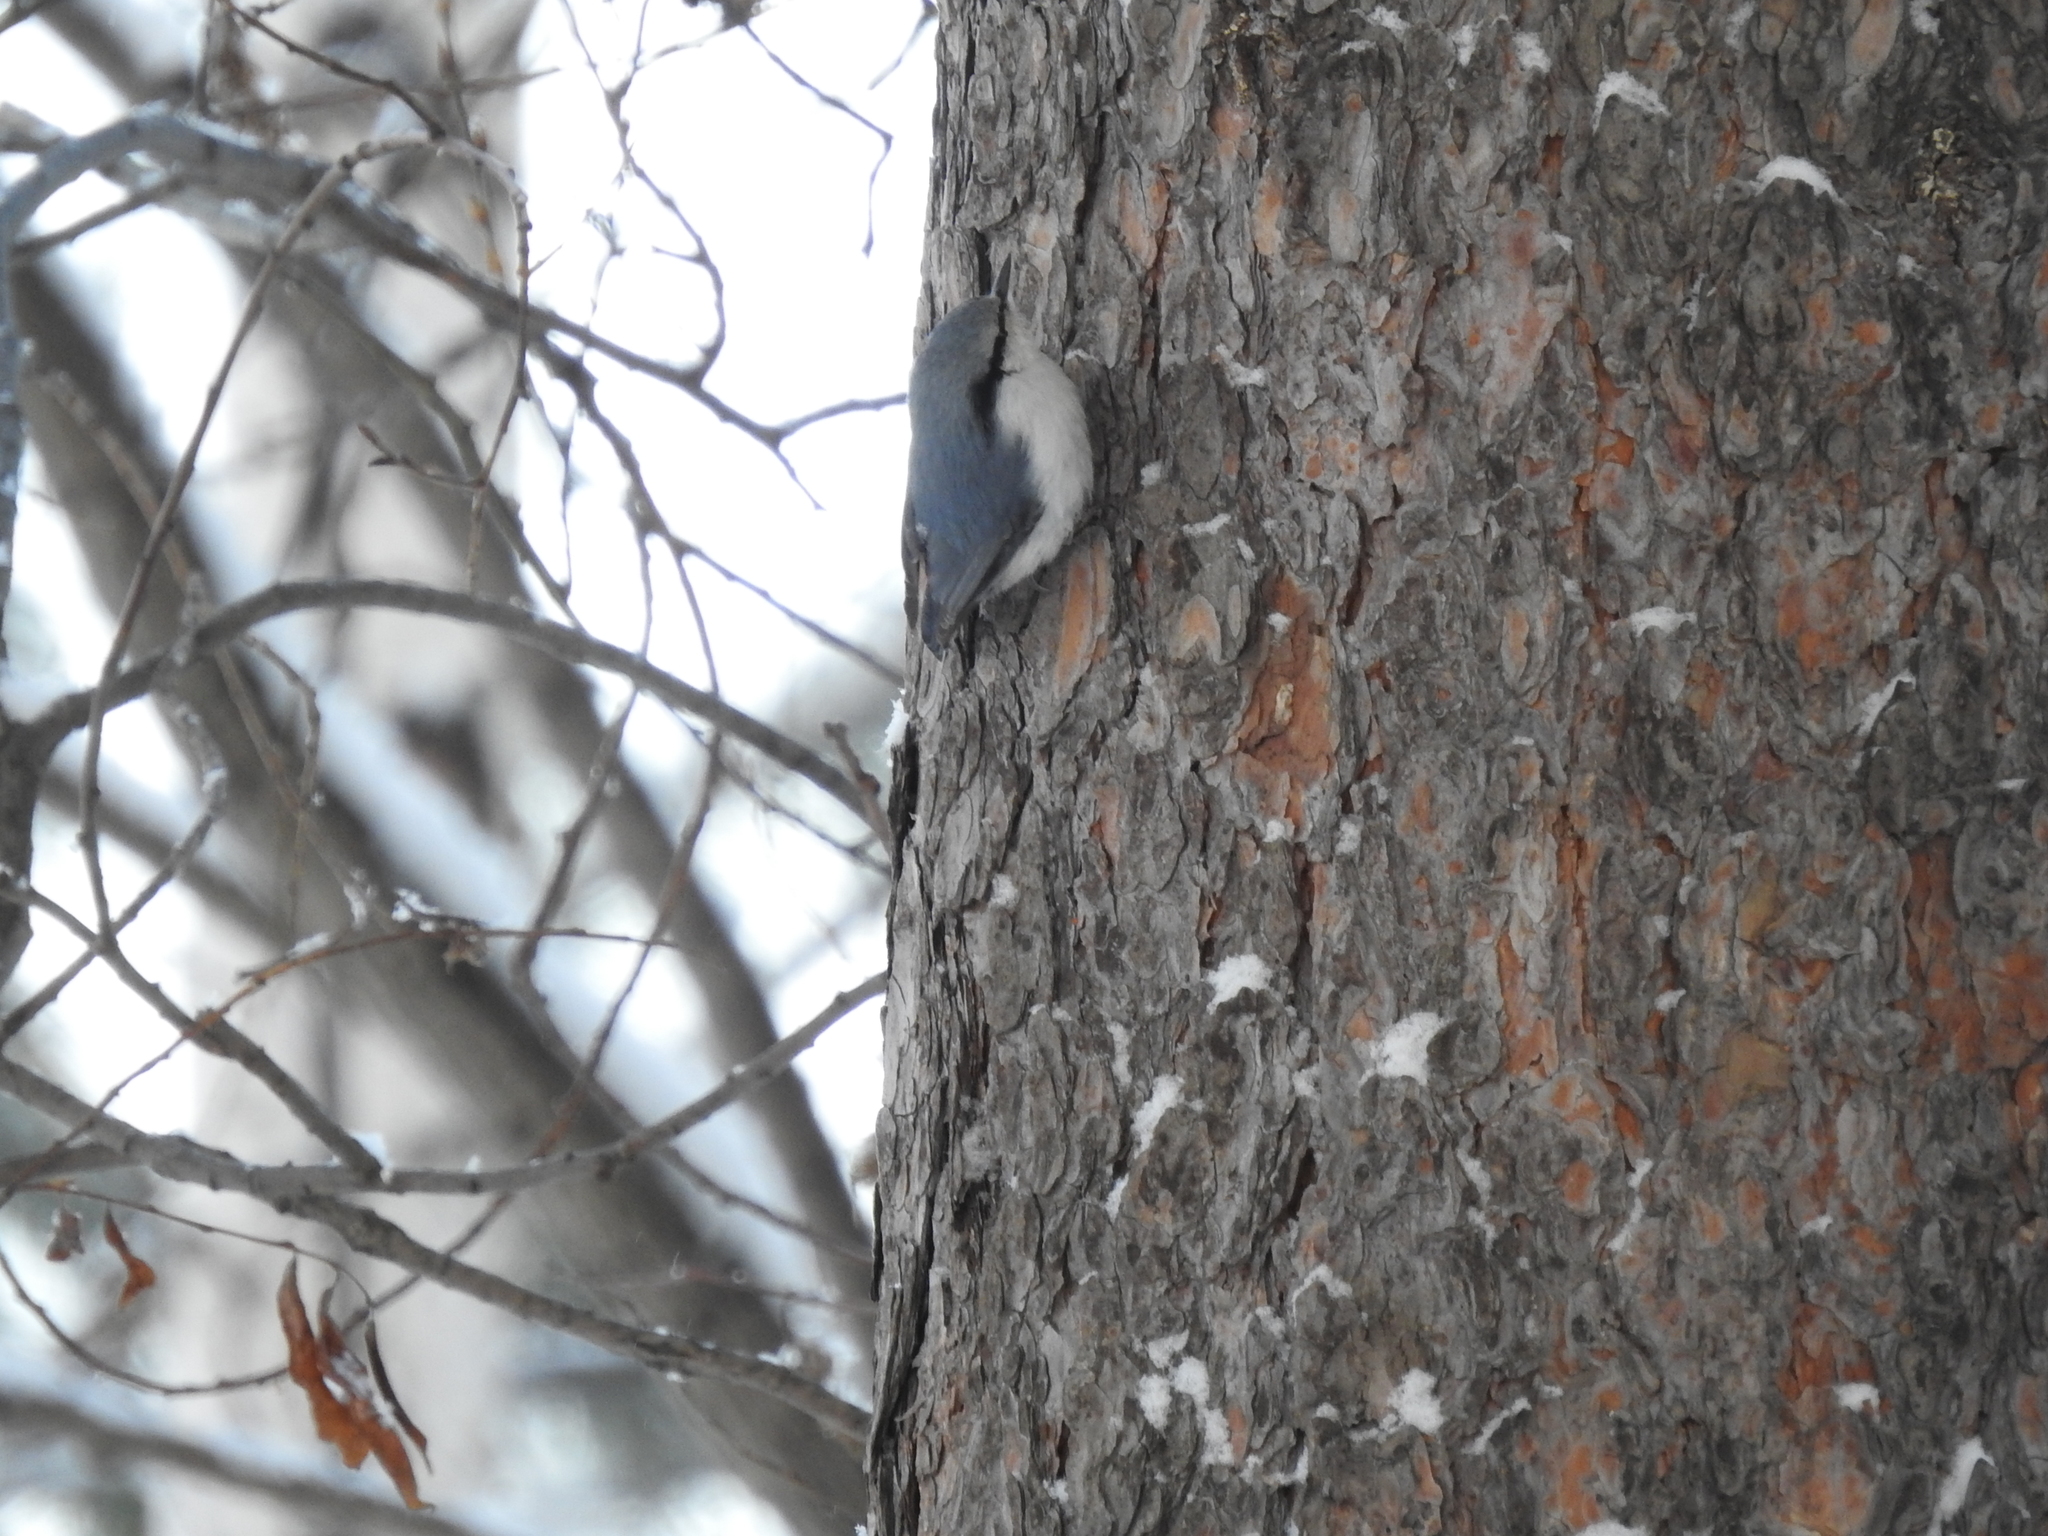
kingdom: Animalia
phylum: Chordata
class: Aves
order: Passeriformes
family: Sittidae
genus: Sitta
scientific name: Sitta europaea
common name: Eurasian nuthatch
